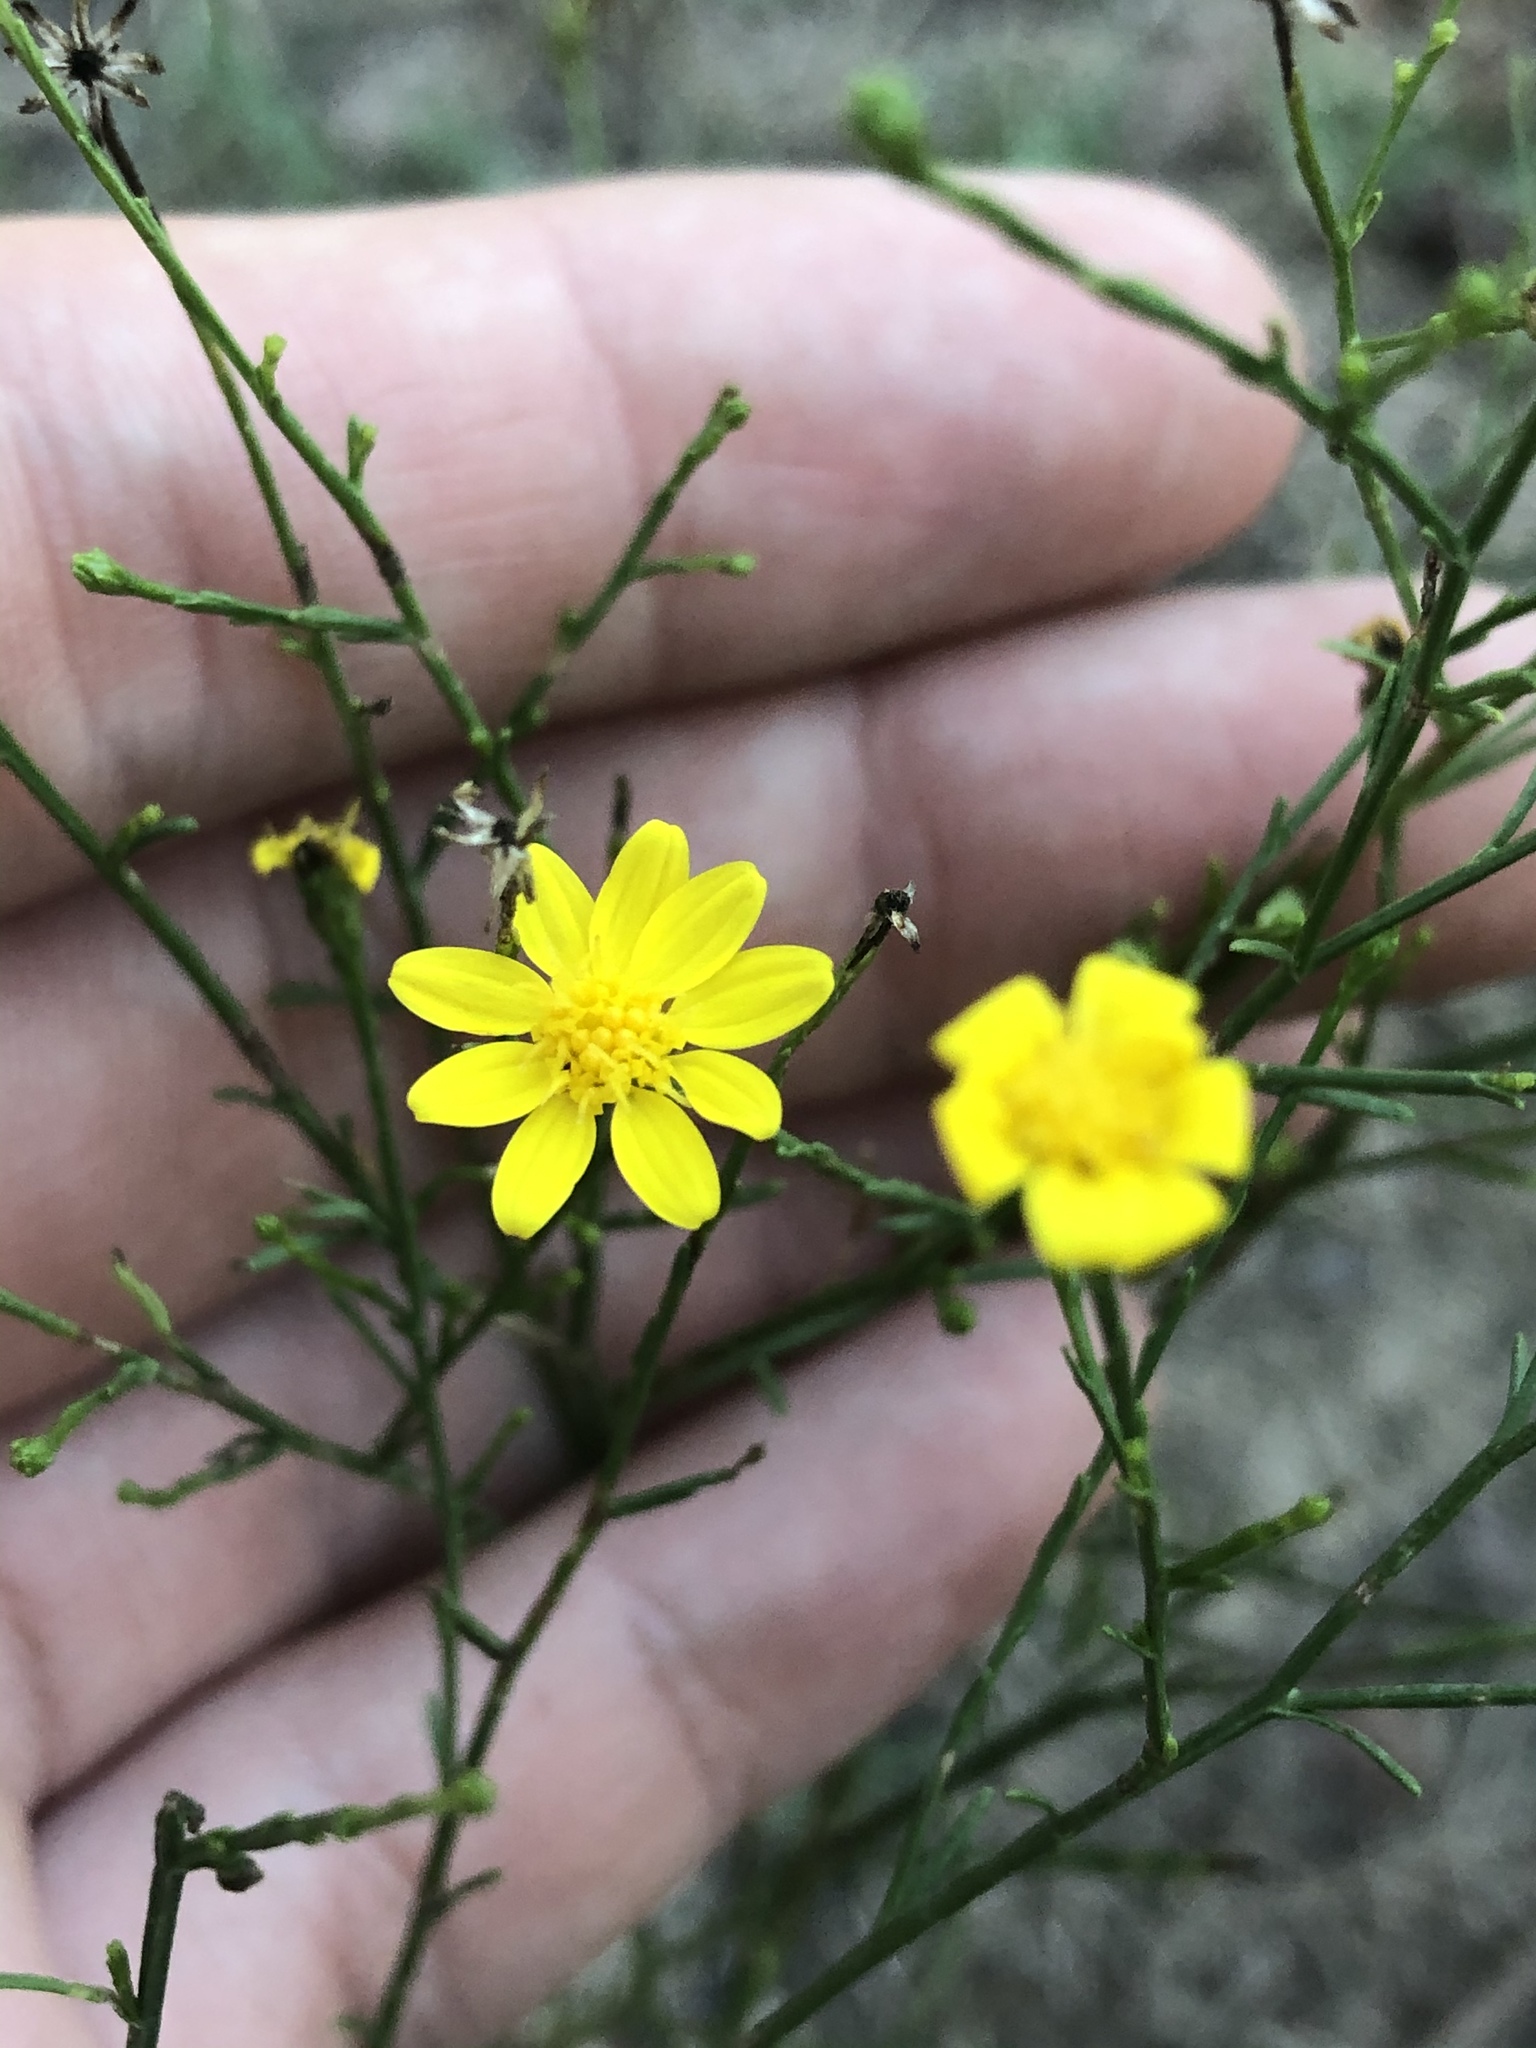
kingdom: Plantae
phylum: Tracheophyta
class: Magnoliopsida
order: Asterales
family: Asteraceae
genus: Gutierrezia
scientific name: Gutierrezia texana
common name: Texas snakeweed
